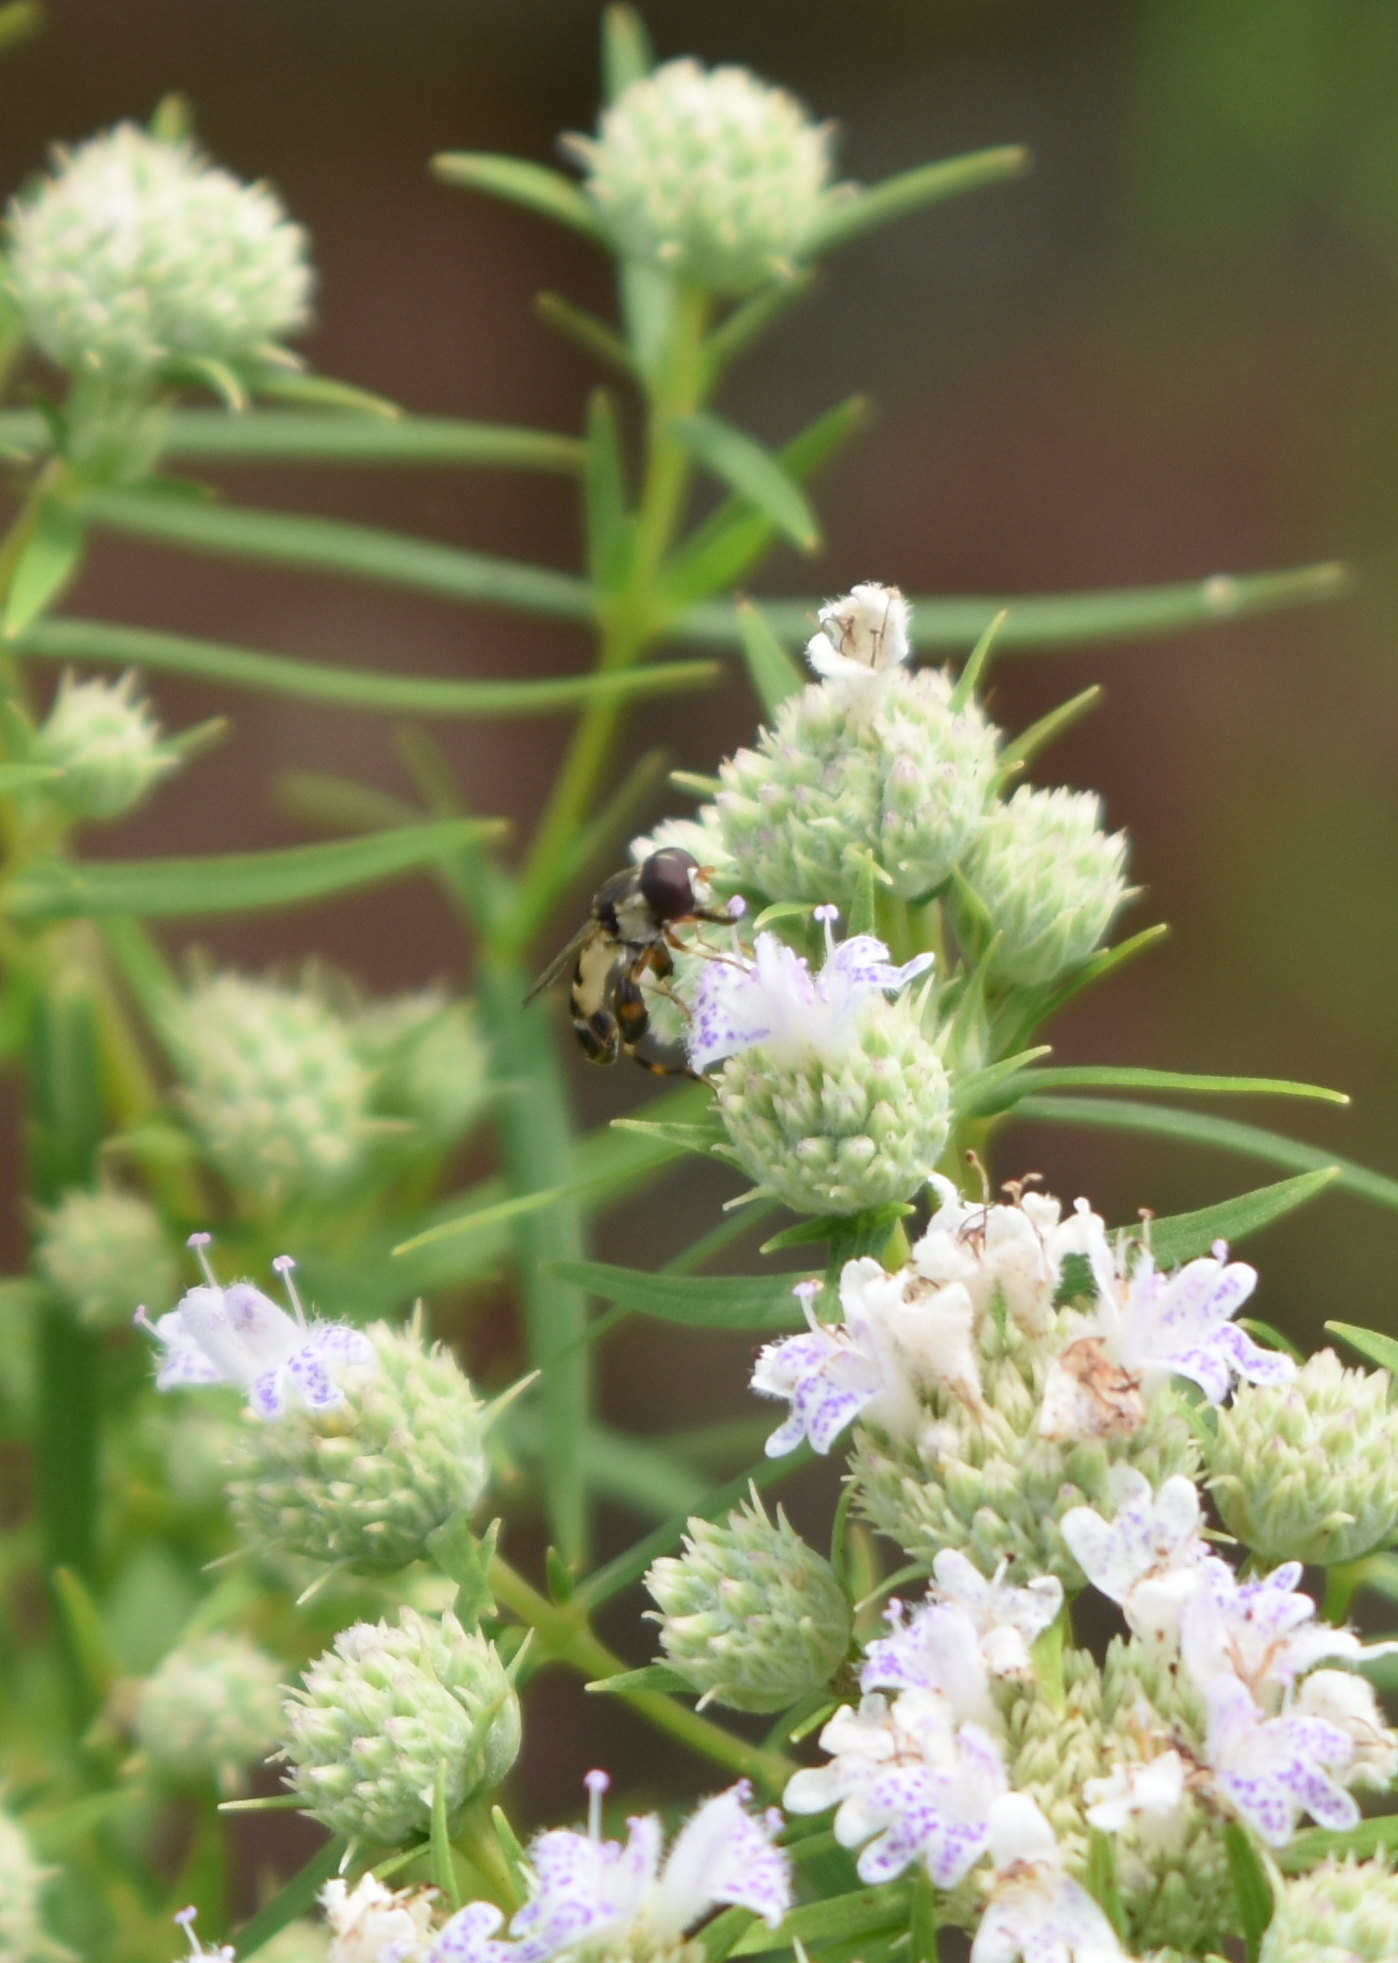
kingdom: Animalia
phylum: Arthropoda
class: Insecta
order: Diptera
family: Syrphidae
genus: Syritta
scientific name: Syritta pipiens
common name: Hover fly
